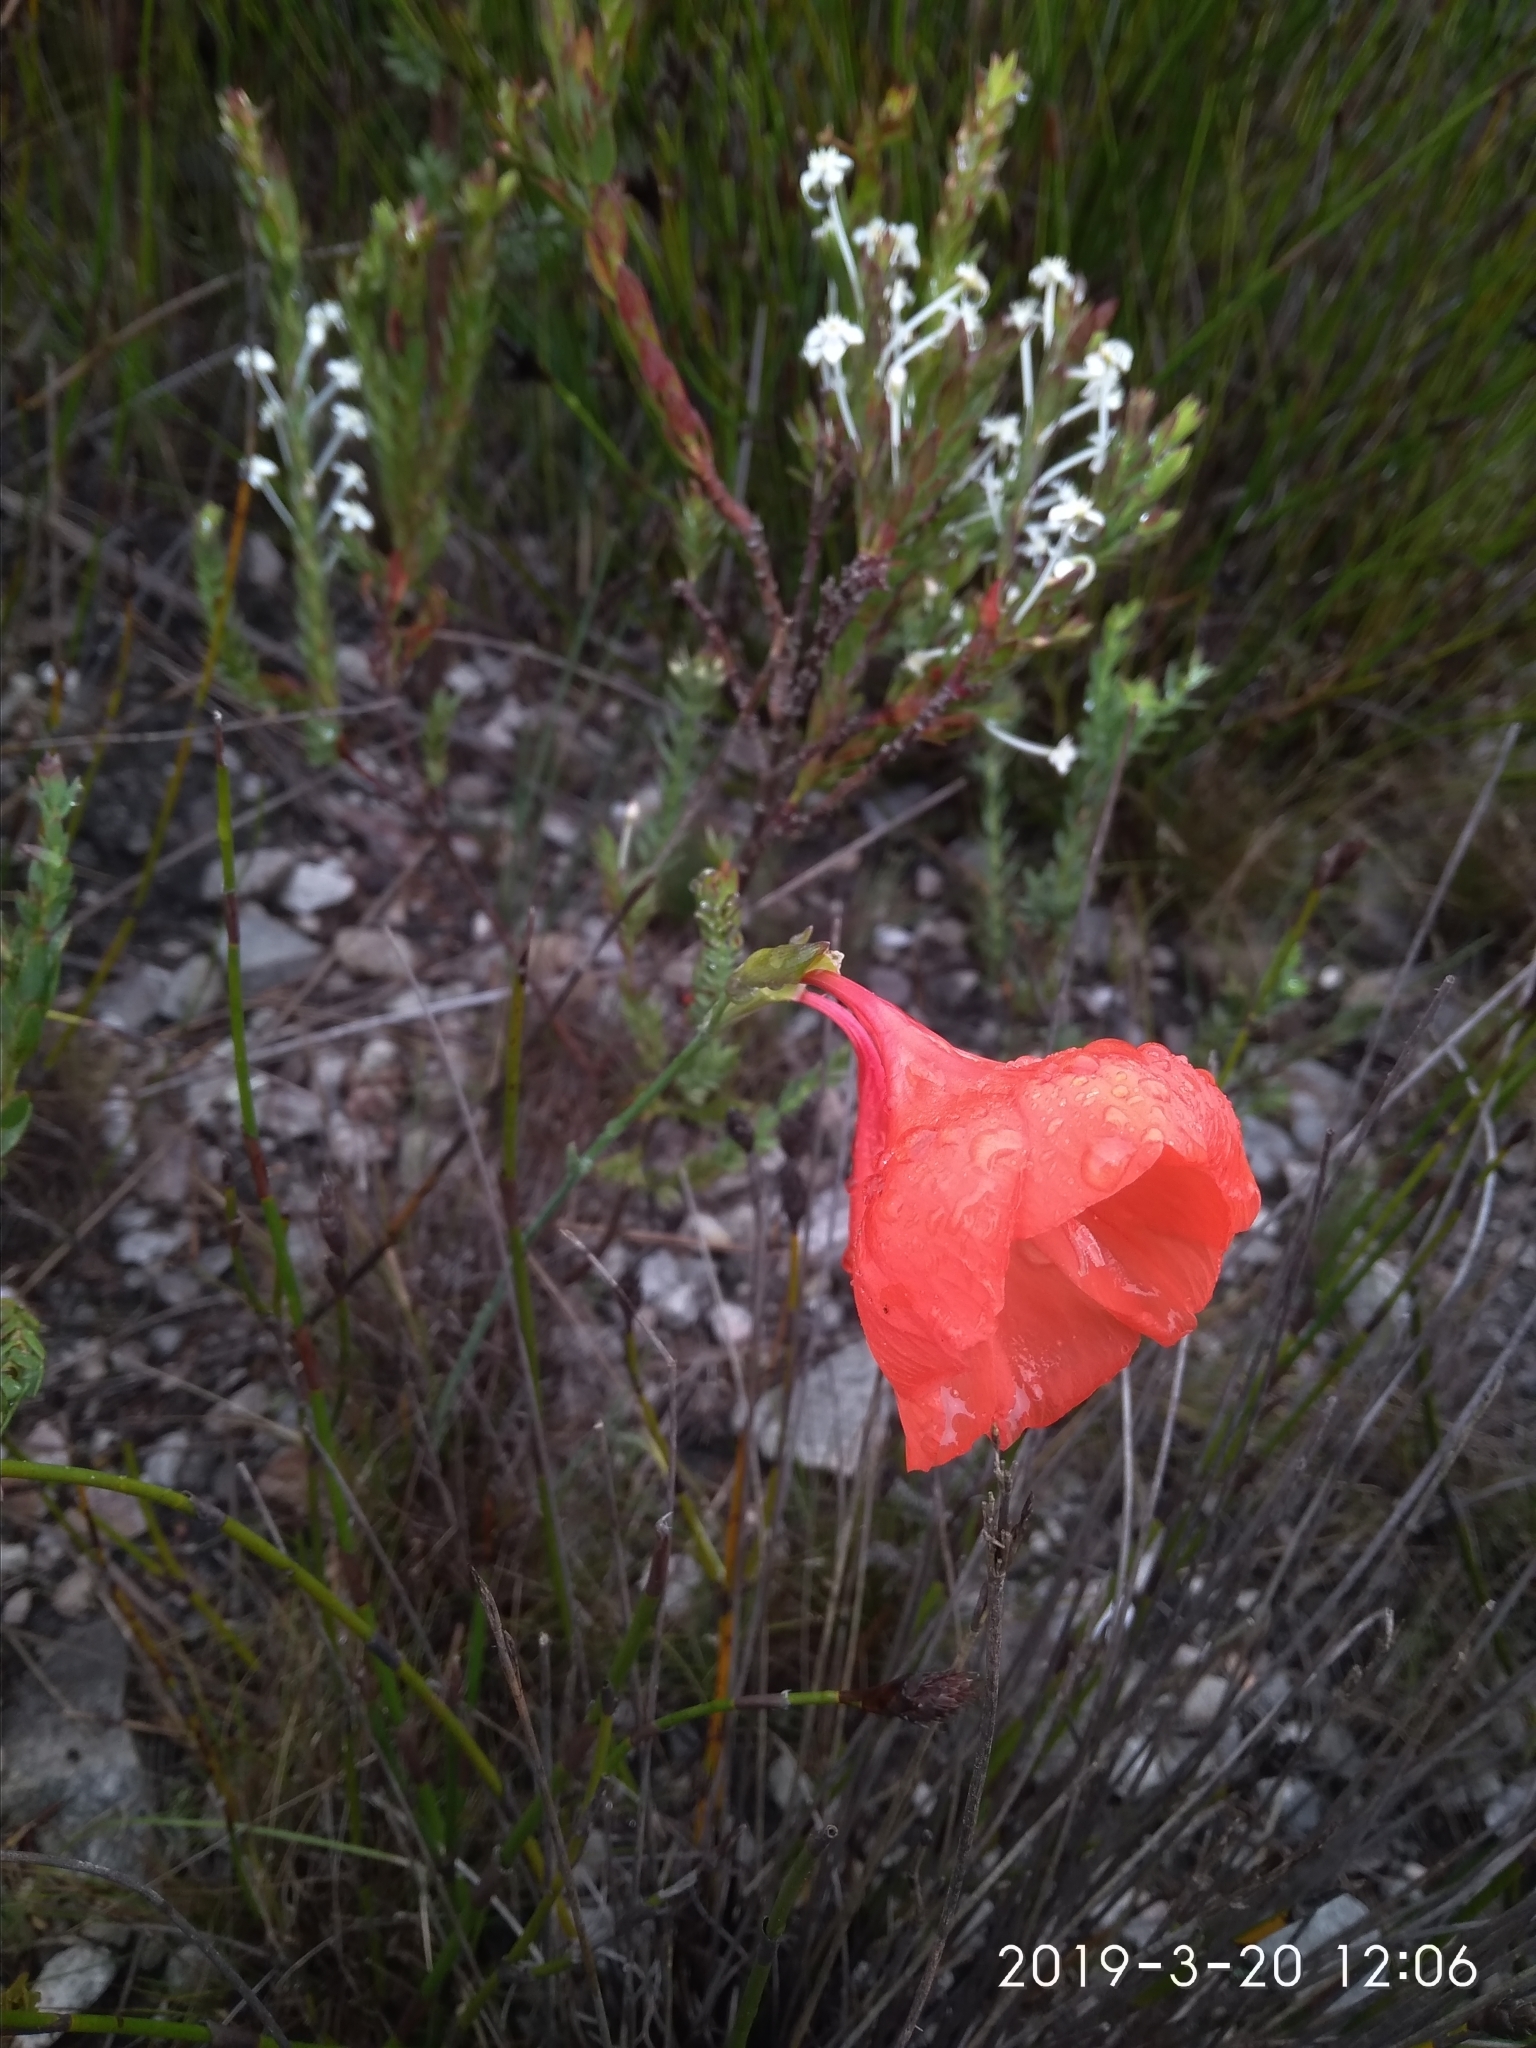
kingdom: Plantae
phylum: Tracheophyta
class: Liliopsida
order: Asparagales
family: Iridaceae
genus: Gladiolus
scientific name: Gladiolus stokoei
